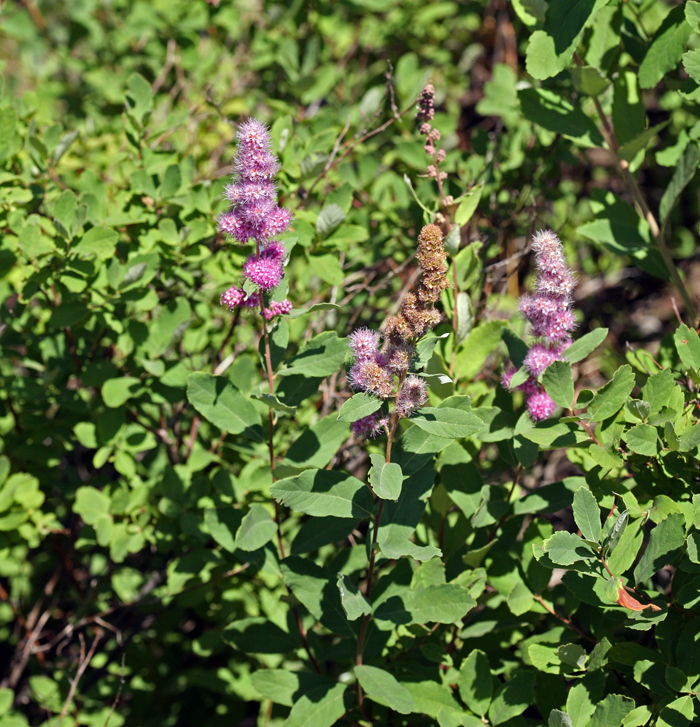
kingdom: Plantae
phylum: Tracheophyta
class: Magnoliopsida
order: Rosales
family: Rosaceae
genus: Spiraea
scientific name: Spiraea douglasii
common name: Steeplebush
